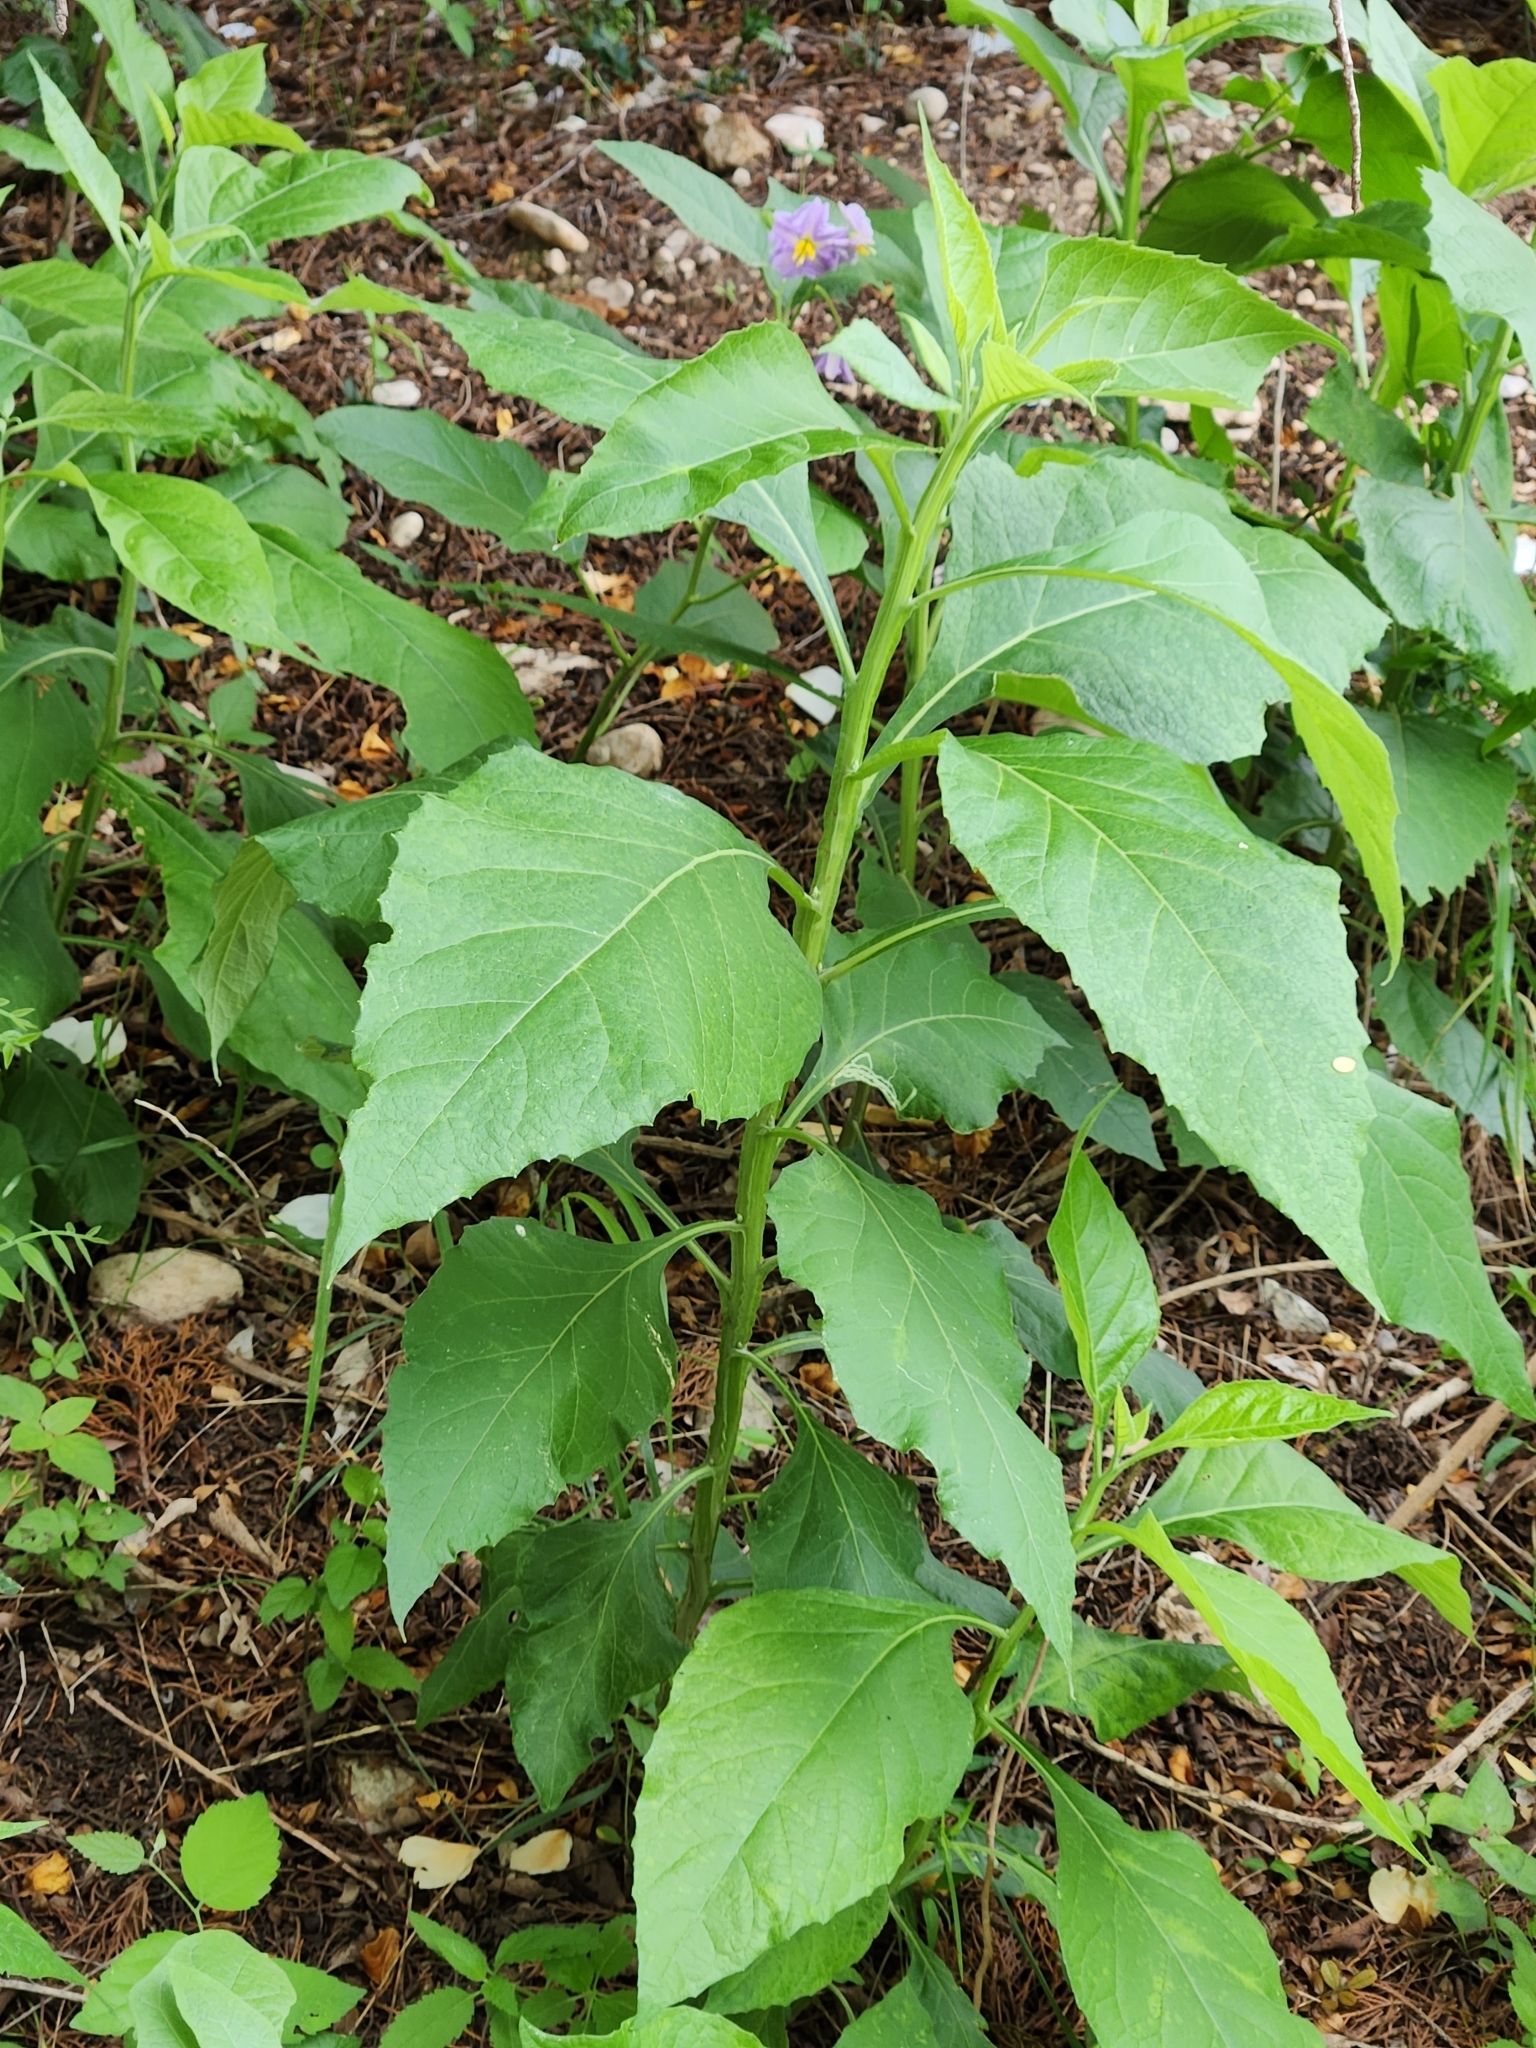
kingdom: Plantae
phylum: Tracheophyta
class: Magnoliopsida
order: Asterales
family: Asteraceae
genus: Verbesina
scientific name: Verbesina virginica
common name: Frostweed
